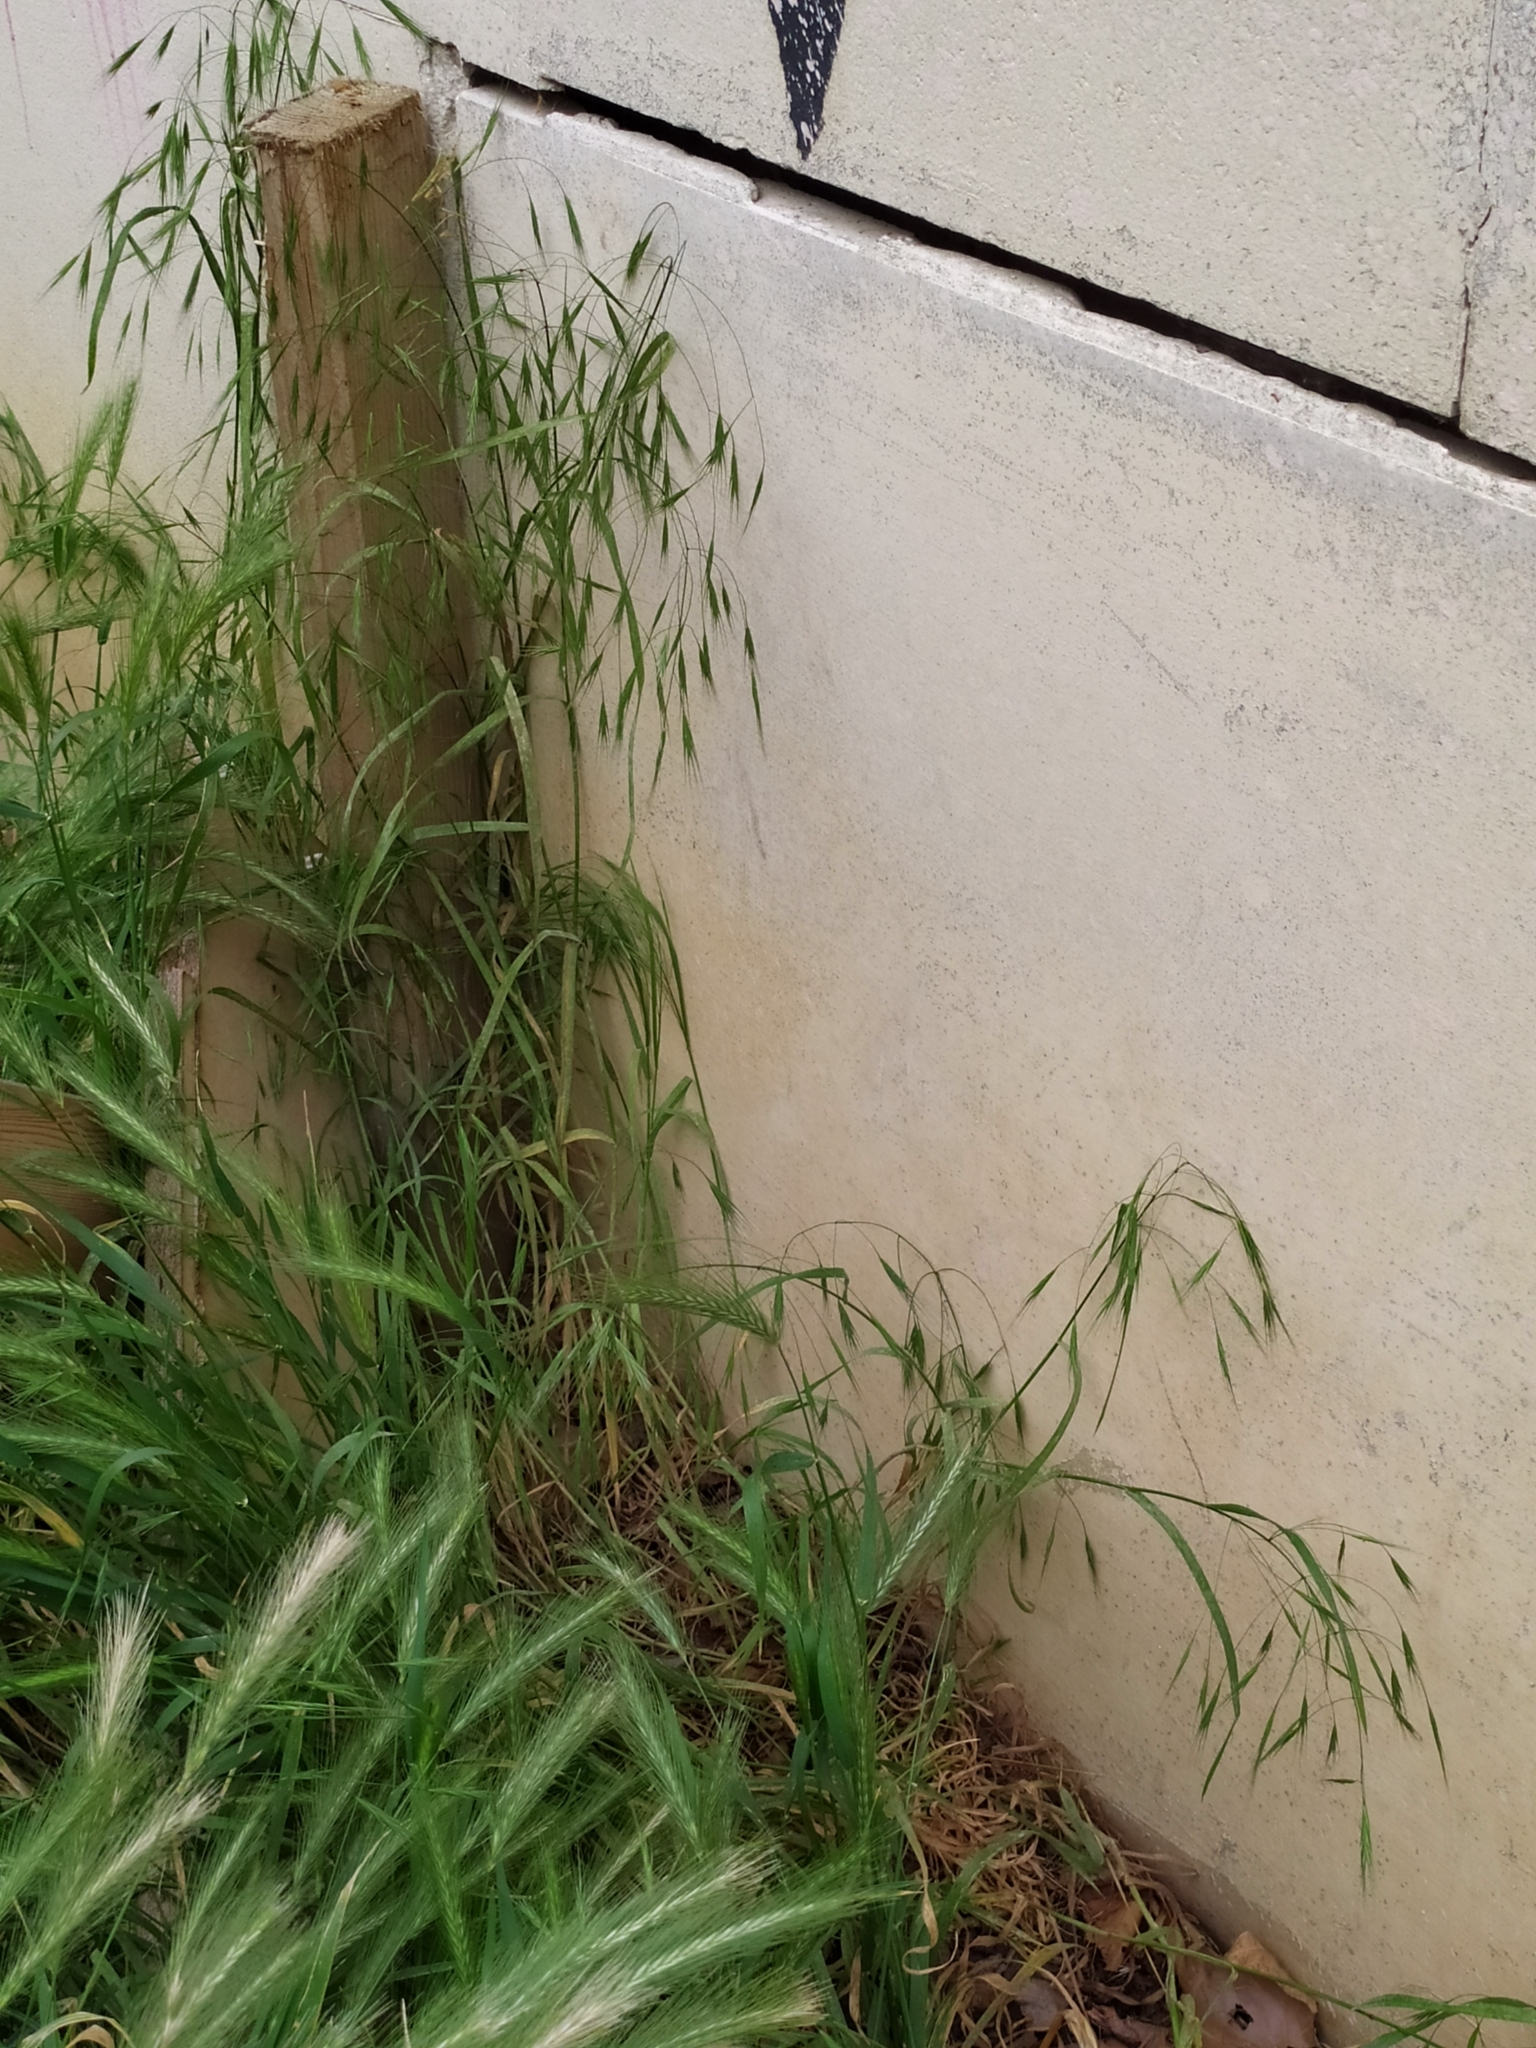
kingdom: Plantae
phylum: Tracheophyta
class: Liliopsida
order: Poales
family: Poaceae
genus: Bromus
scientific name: Bromus sterilis
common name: Poverty brome
